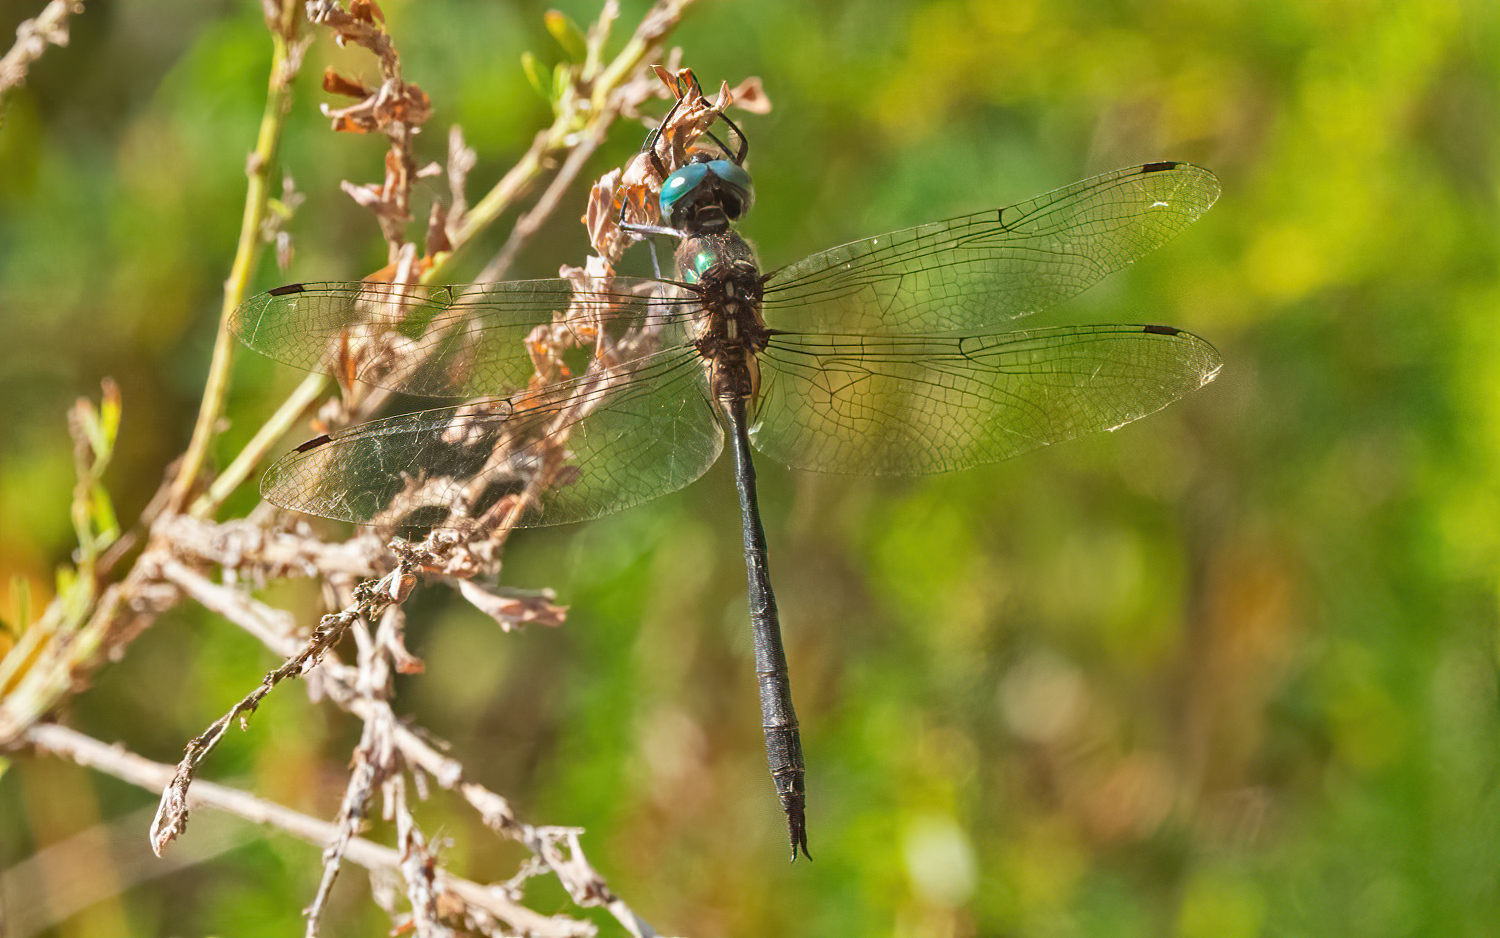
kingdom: Animalia
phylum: Arthropoda
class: Insecta
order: Odonata
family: Corduliidae
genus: Somatochlora
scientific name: Somatochlora filosa
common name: Fine-lined emerald
